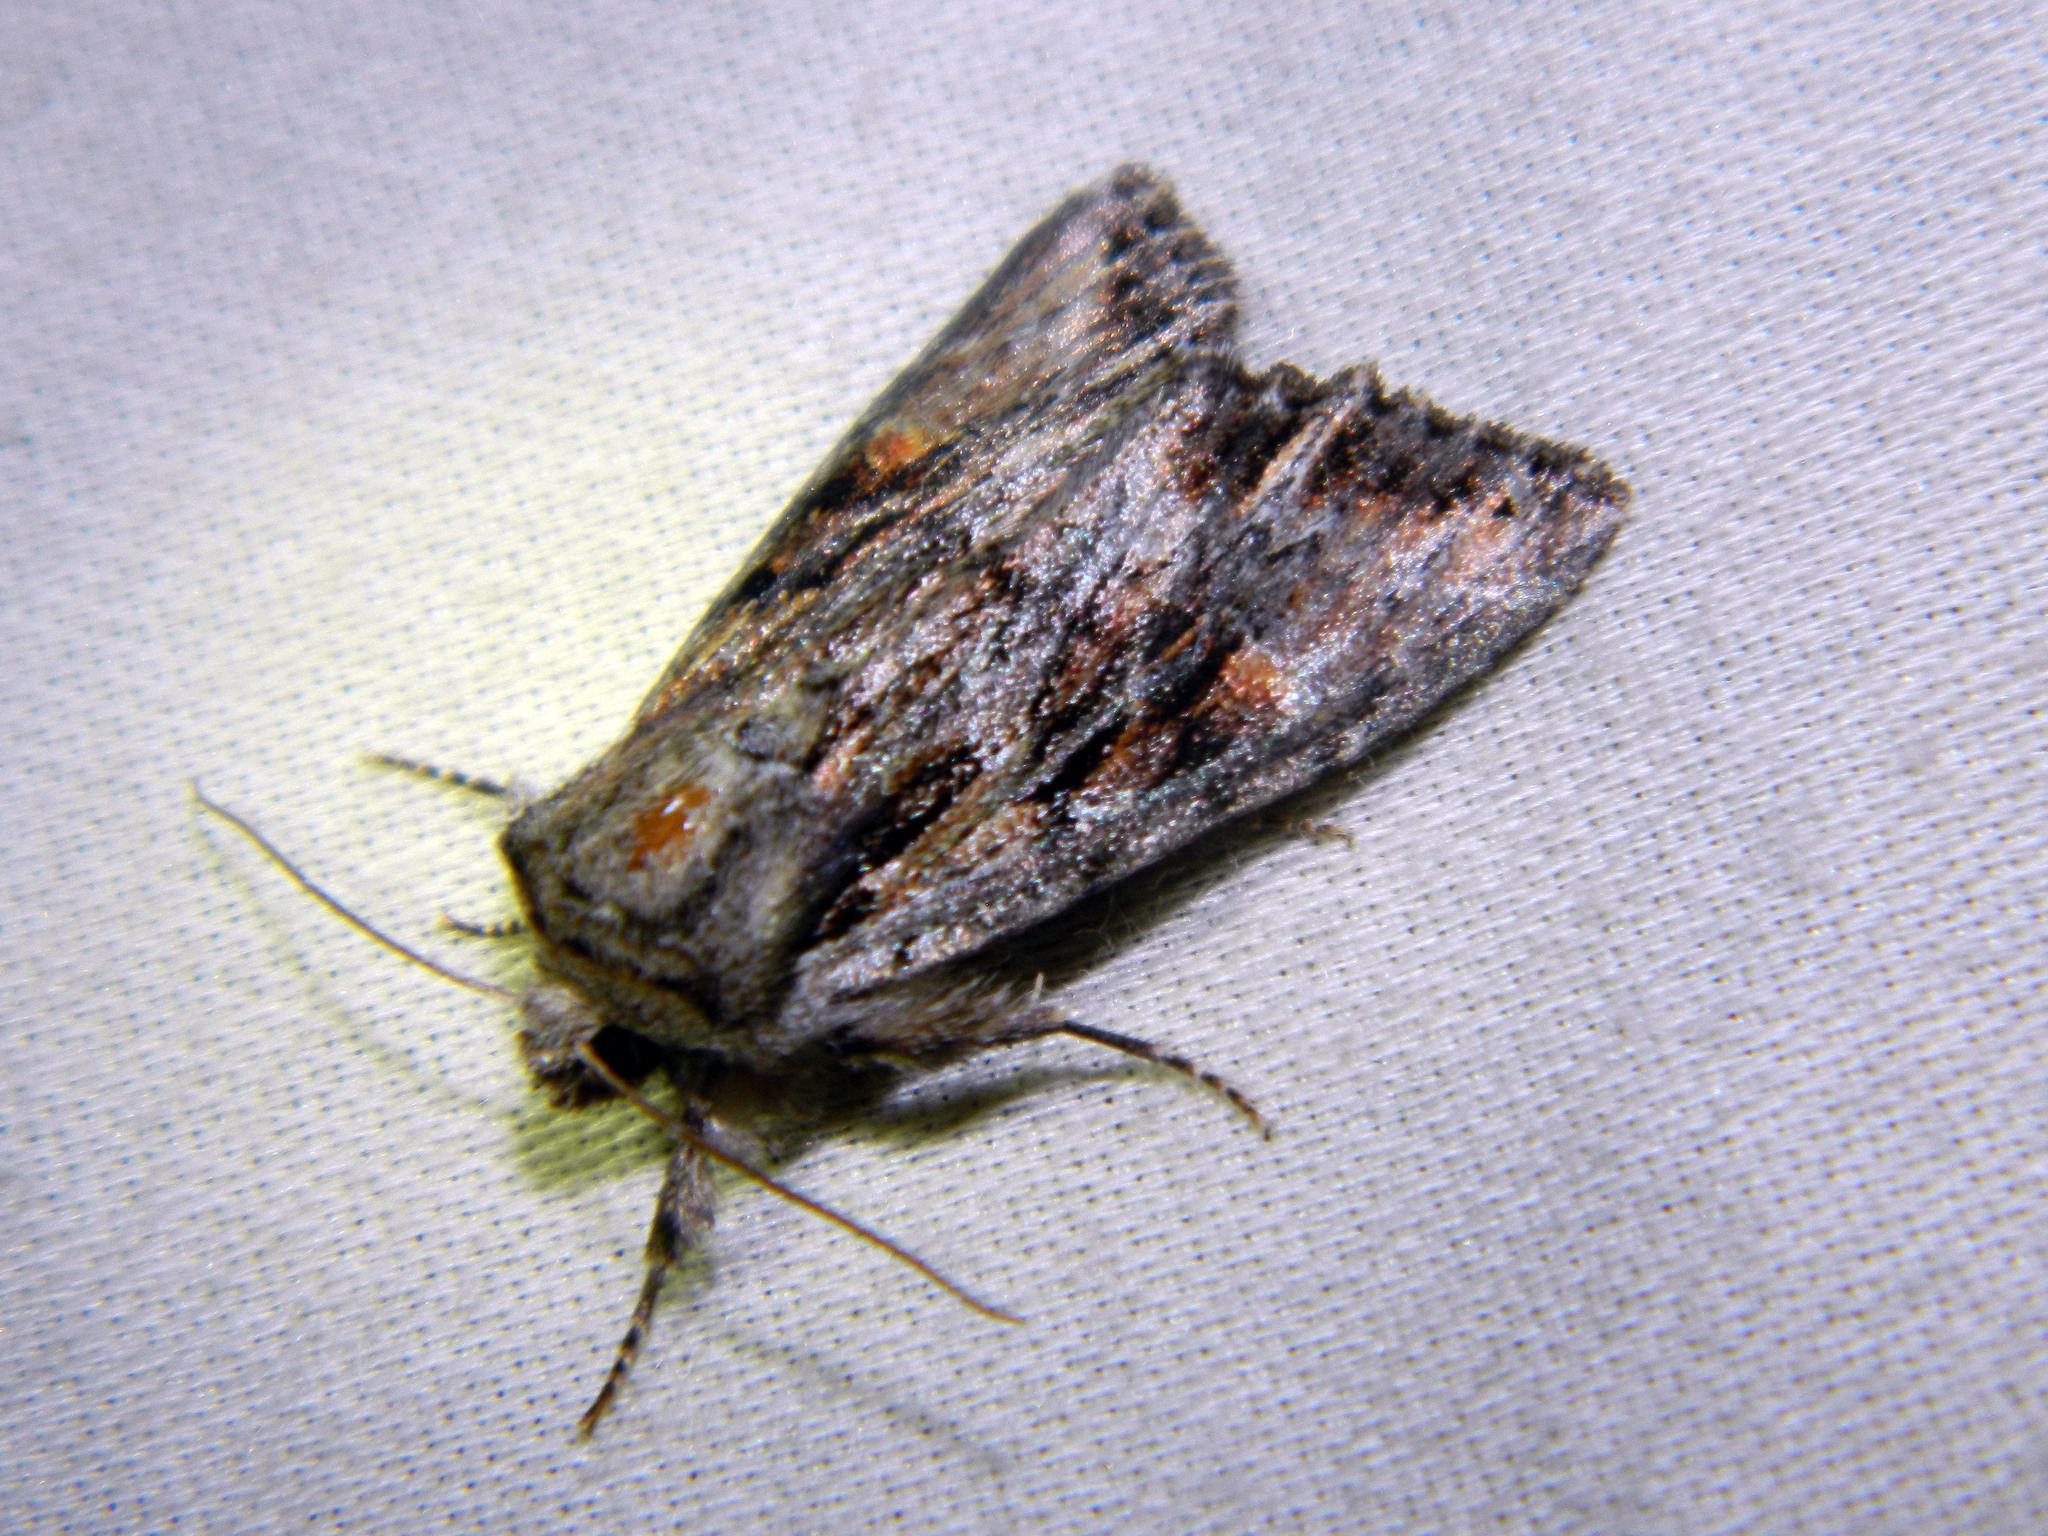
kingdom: Animalia
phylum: Arthropoda
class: Insecta
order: Lepidoptera
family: Noctuidae
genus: Achatia
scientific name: Achatia evicta
